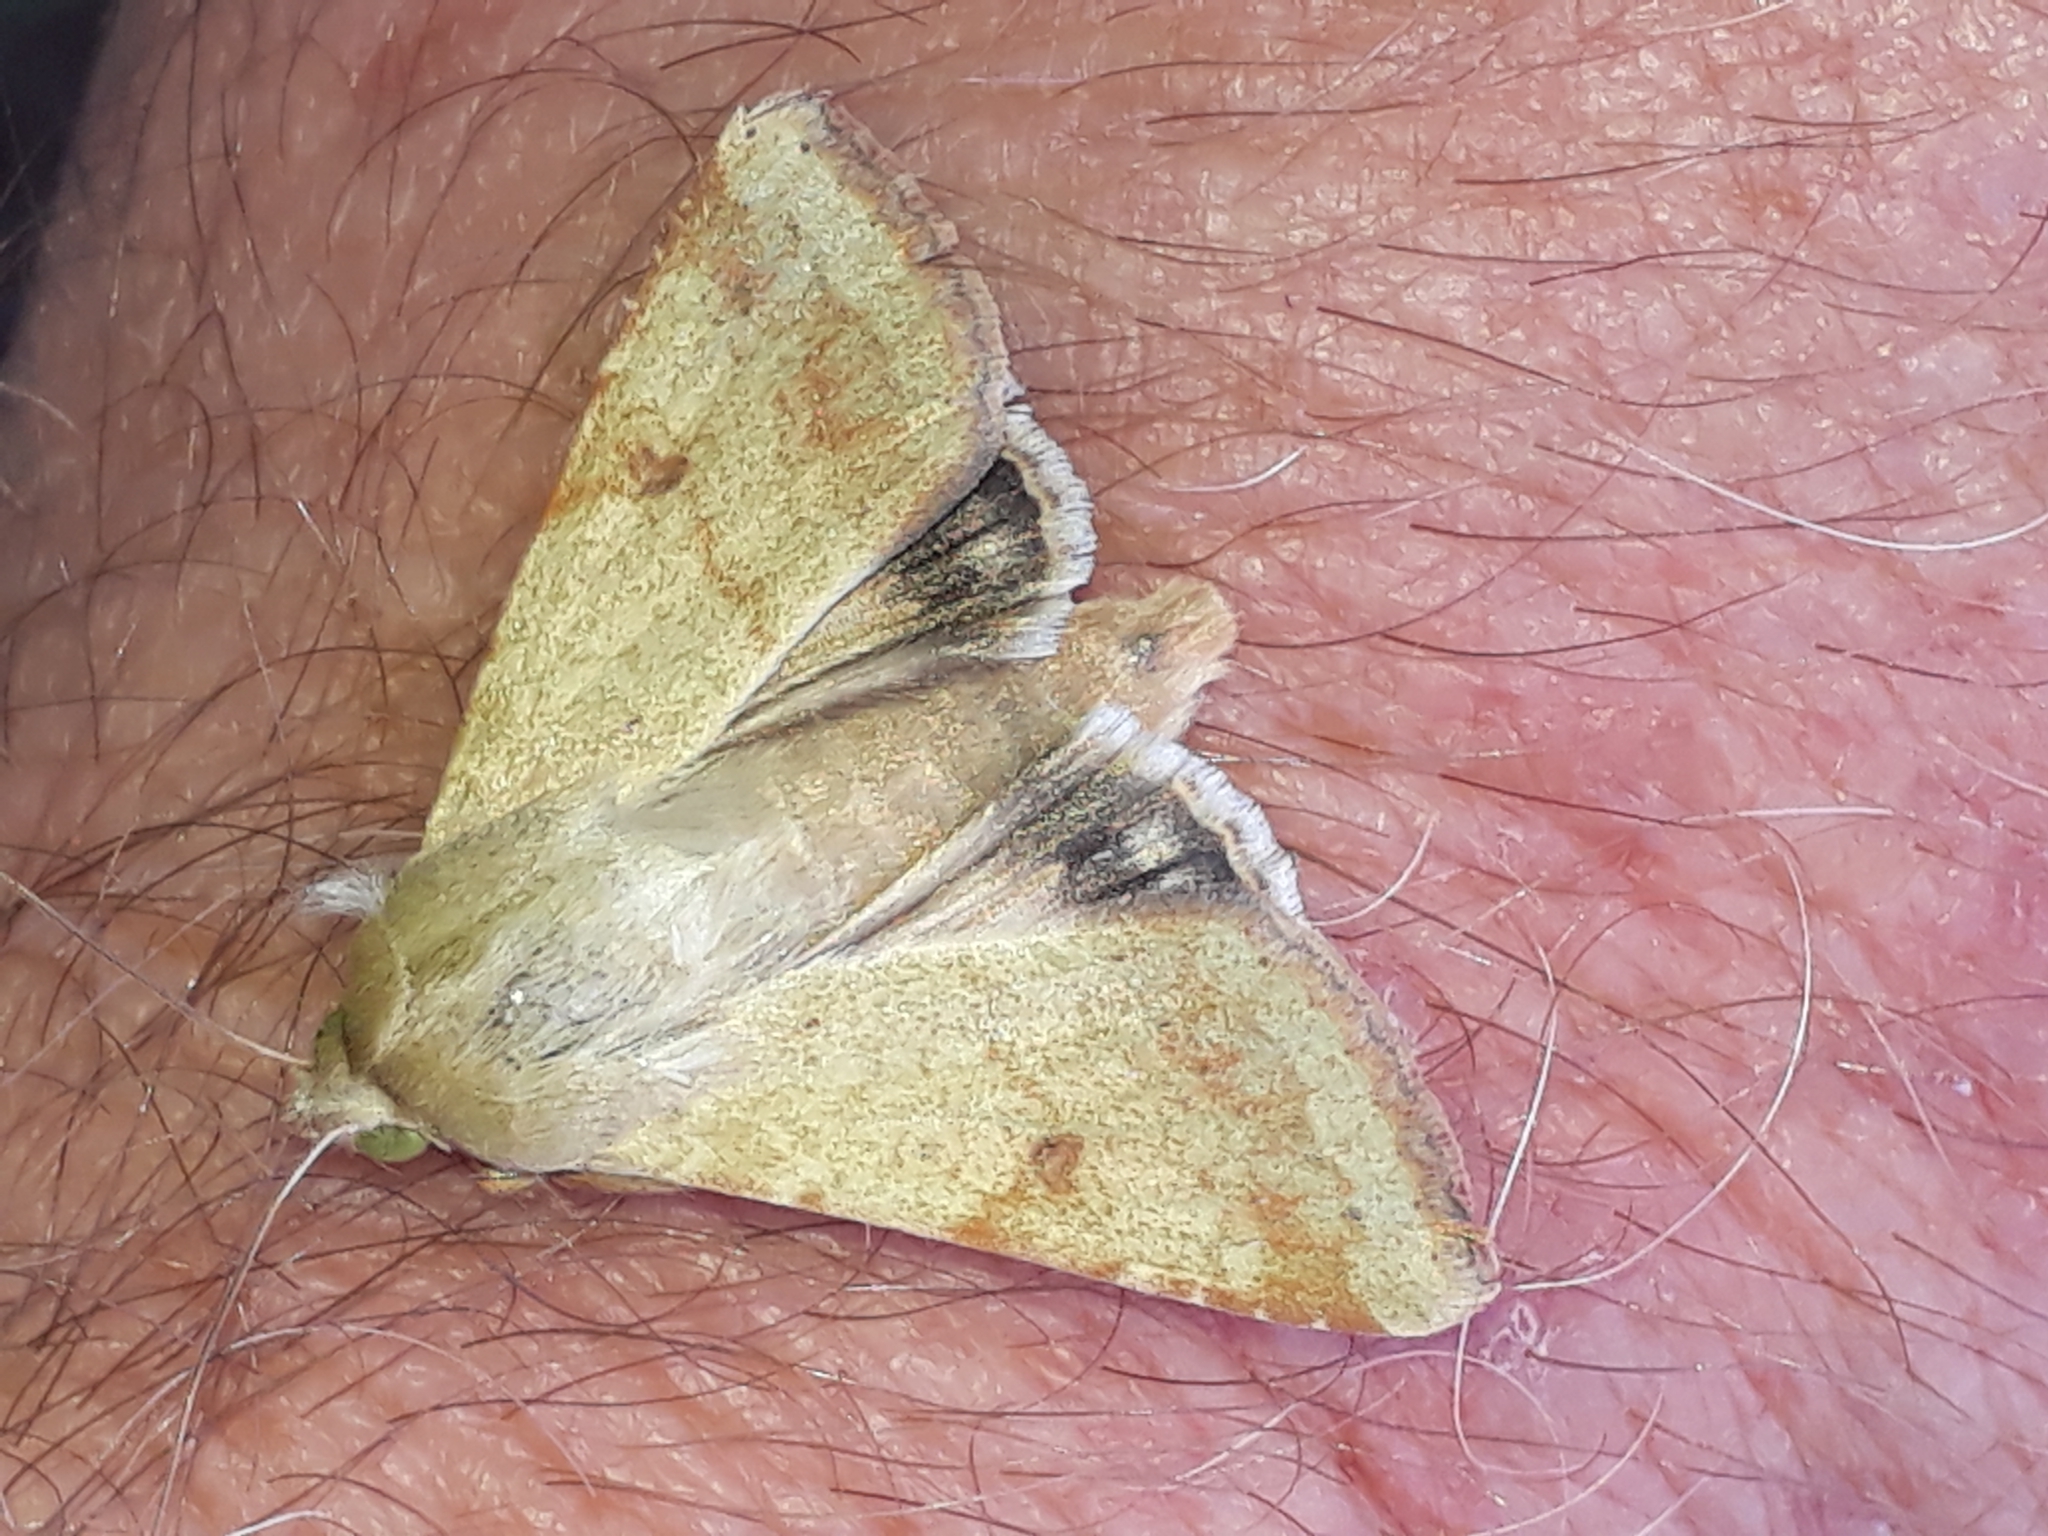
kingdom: Animalia
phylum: Arthropoda
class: Insecta
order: Lepidoptera
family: Noctuidae
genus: Helicoverpa
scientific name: Helicoverpa armigera
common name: Cotton bollworm
